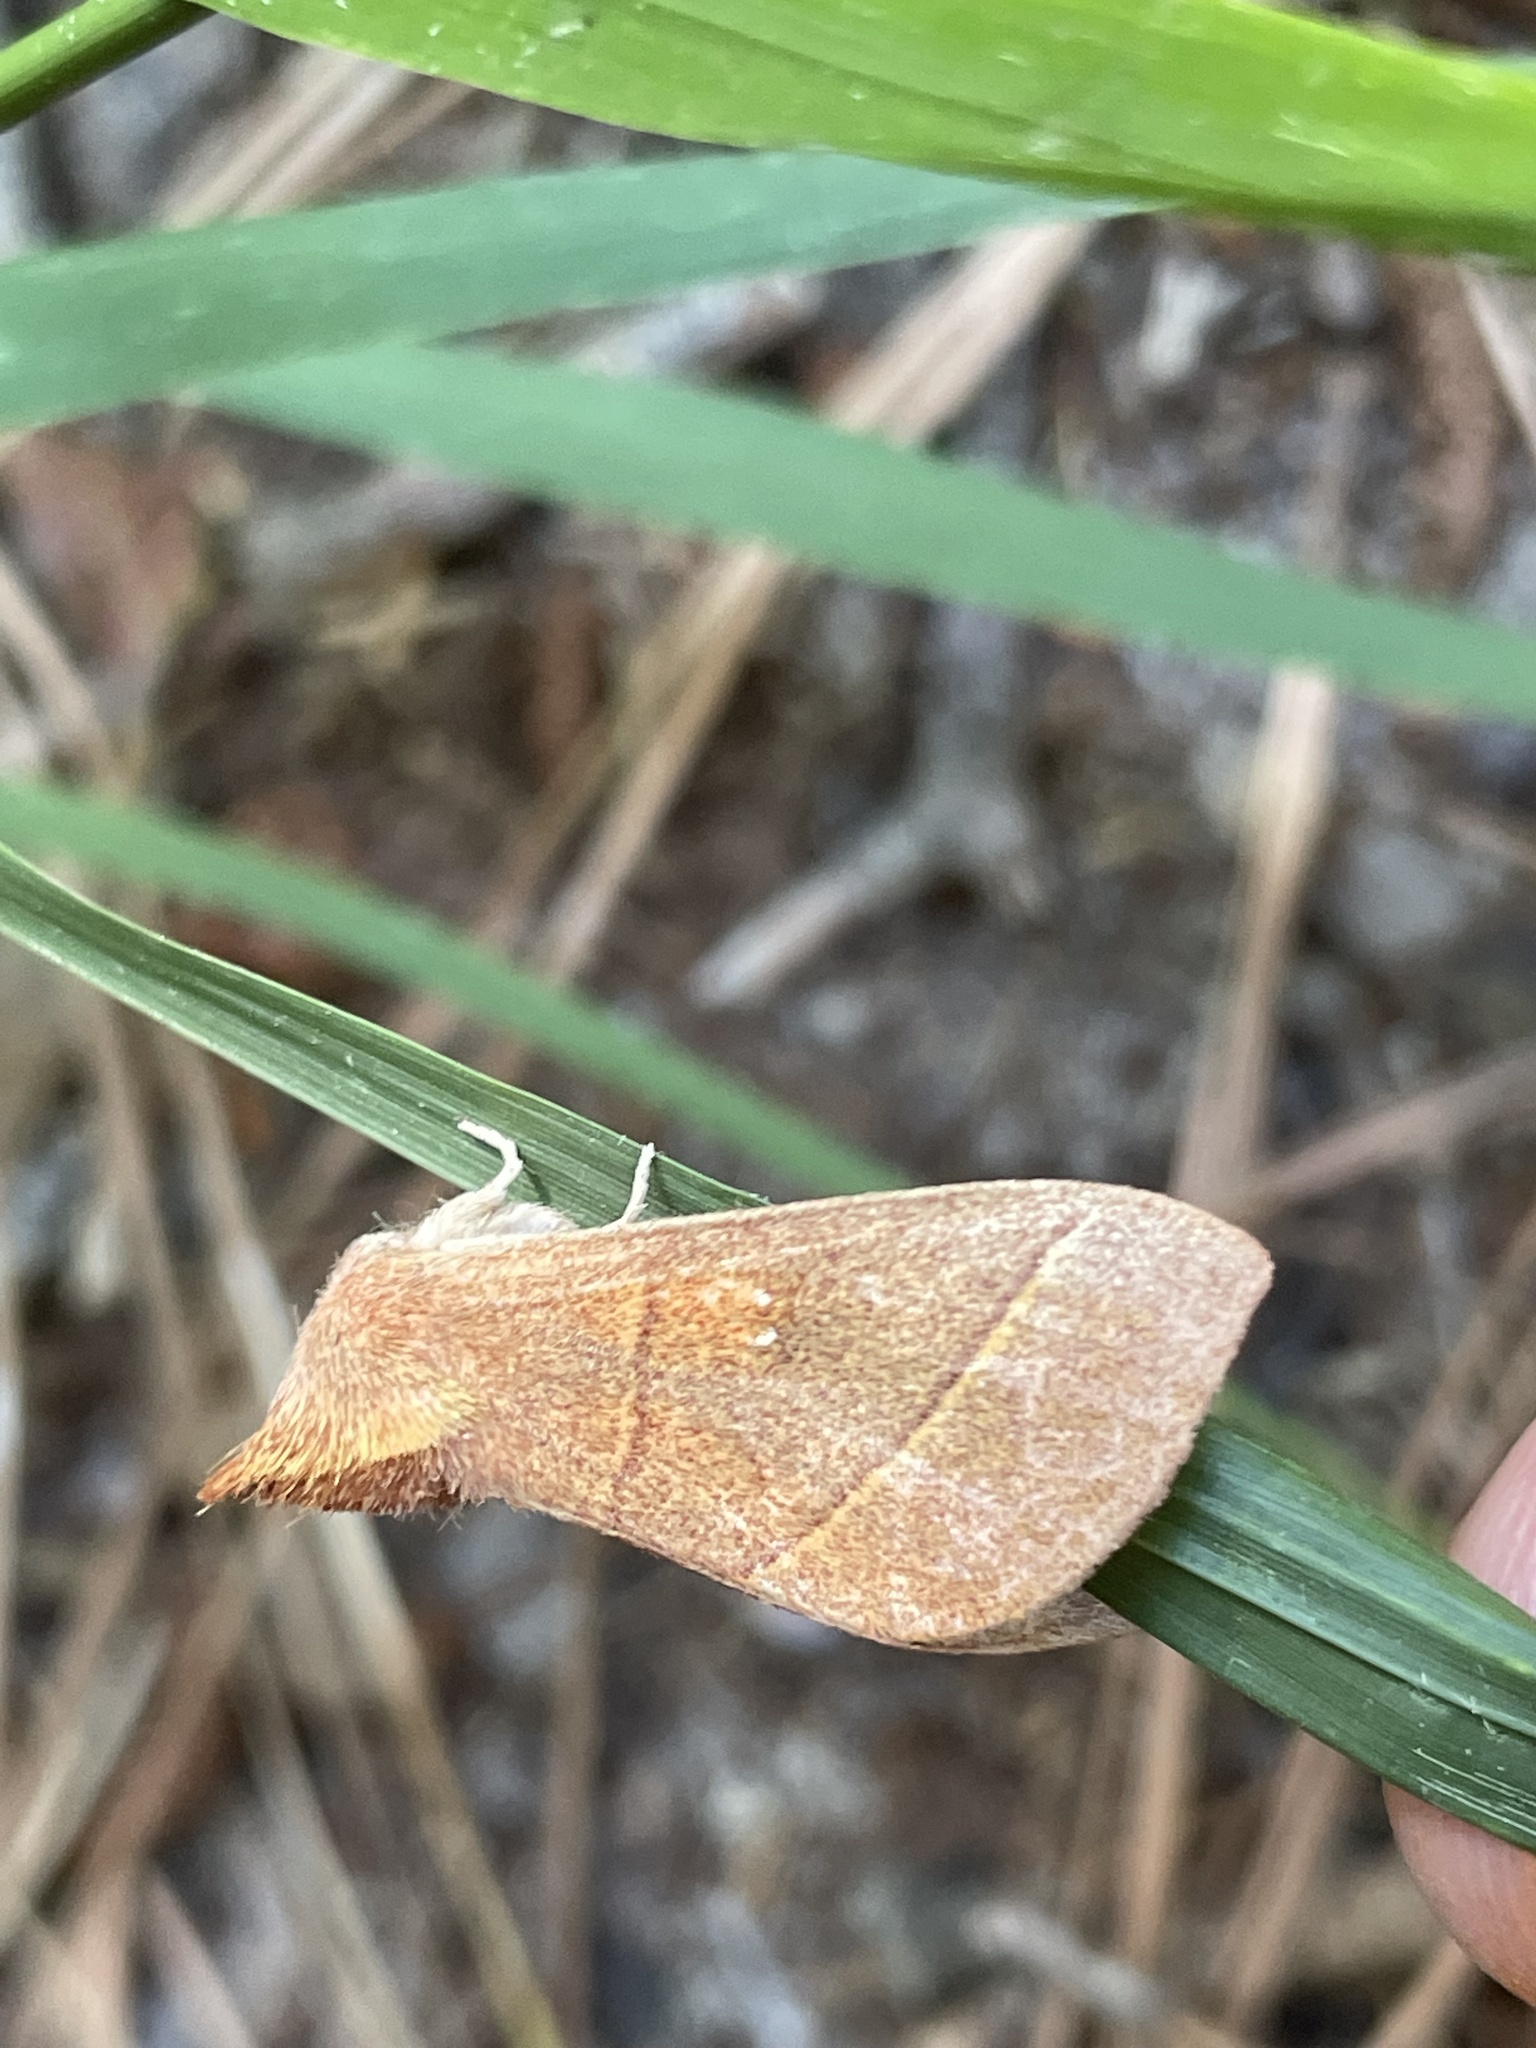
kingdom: Animalia
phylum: Arthropoda
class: Insecta
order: Lepidoptera
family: Notodontidae
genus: Nadata
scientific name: Nadata gibbosa
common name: White-dotted prominent
